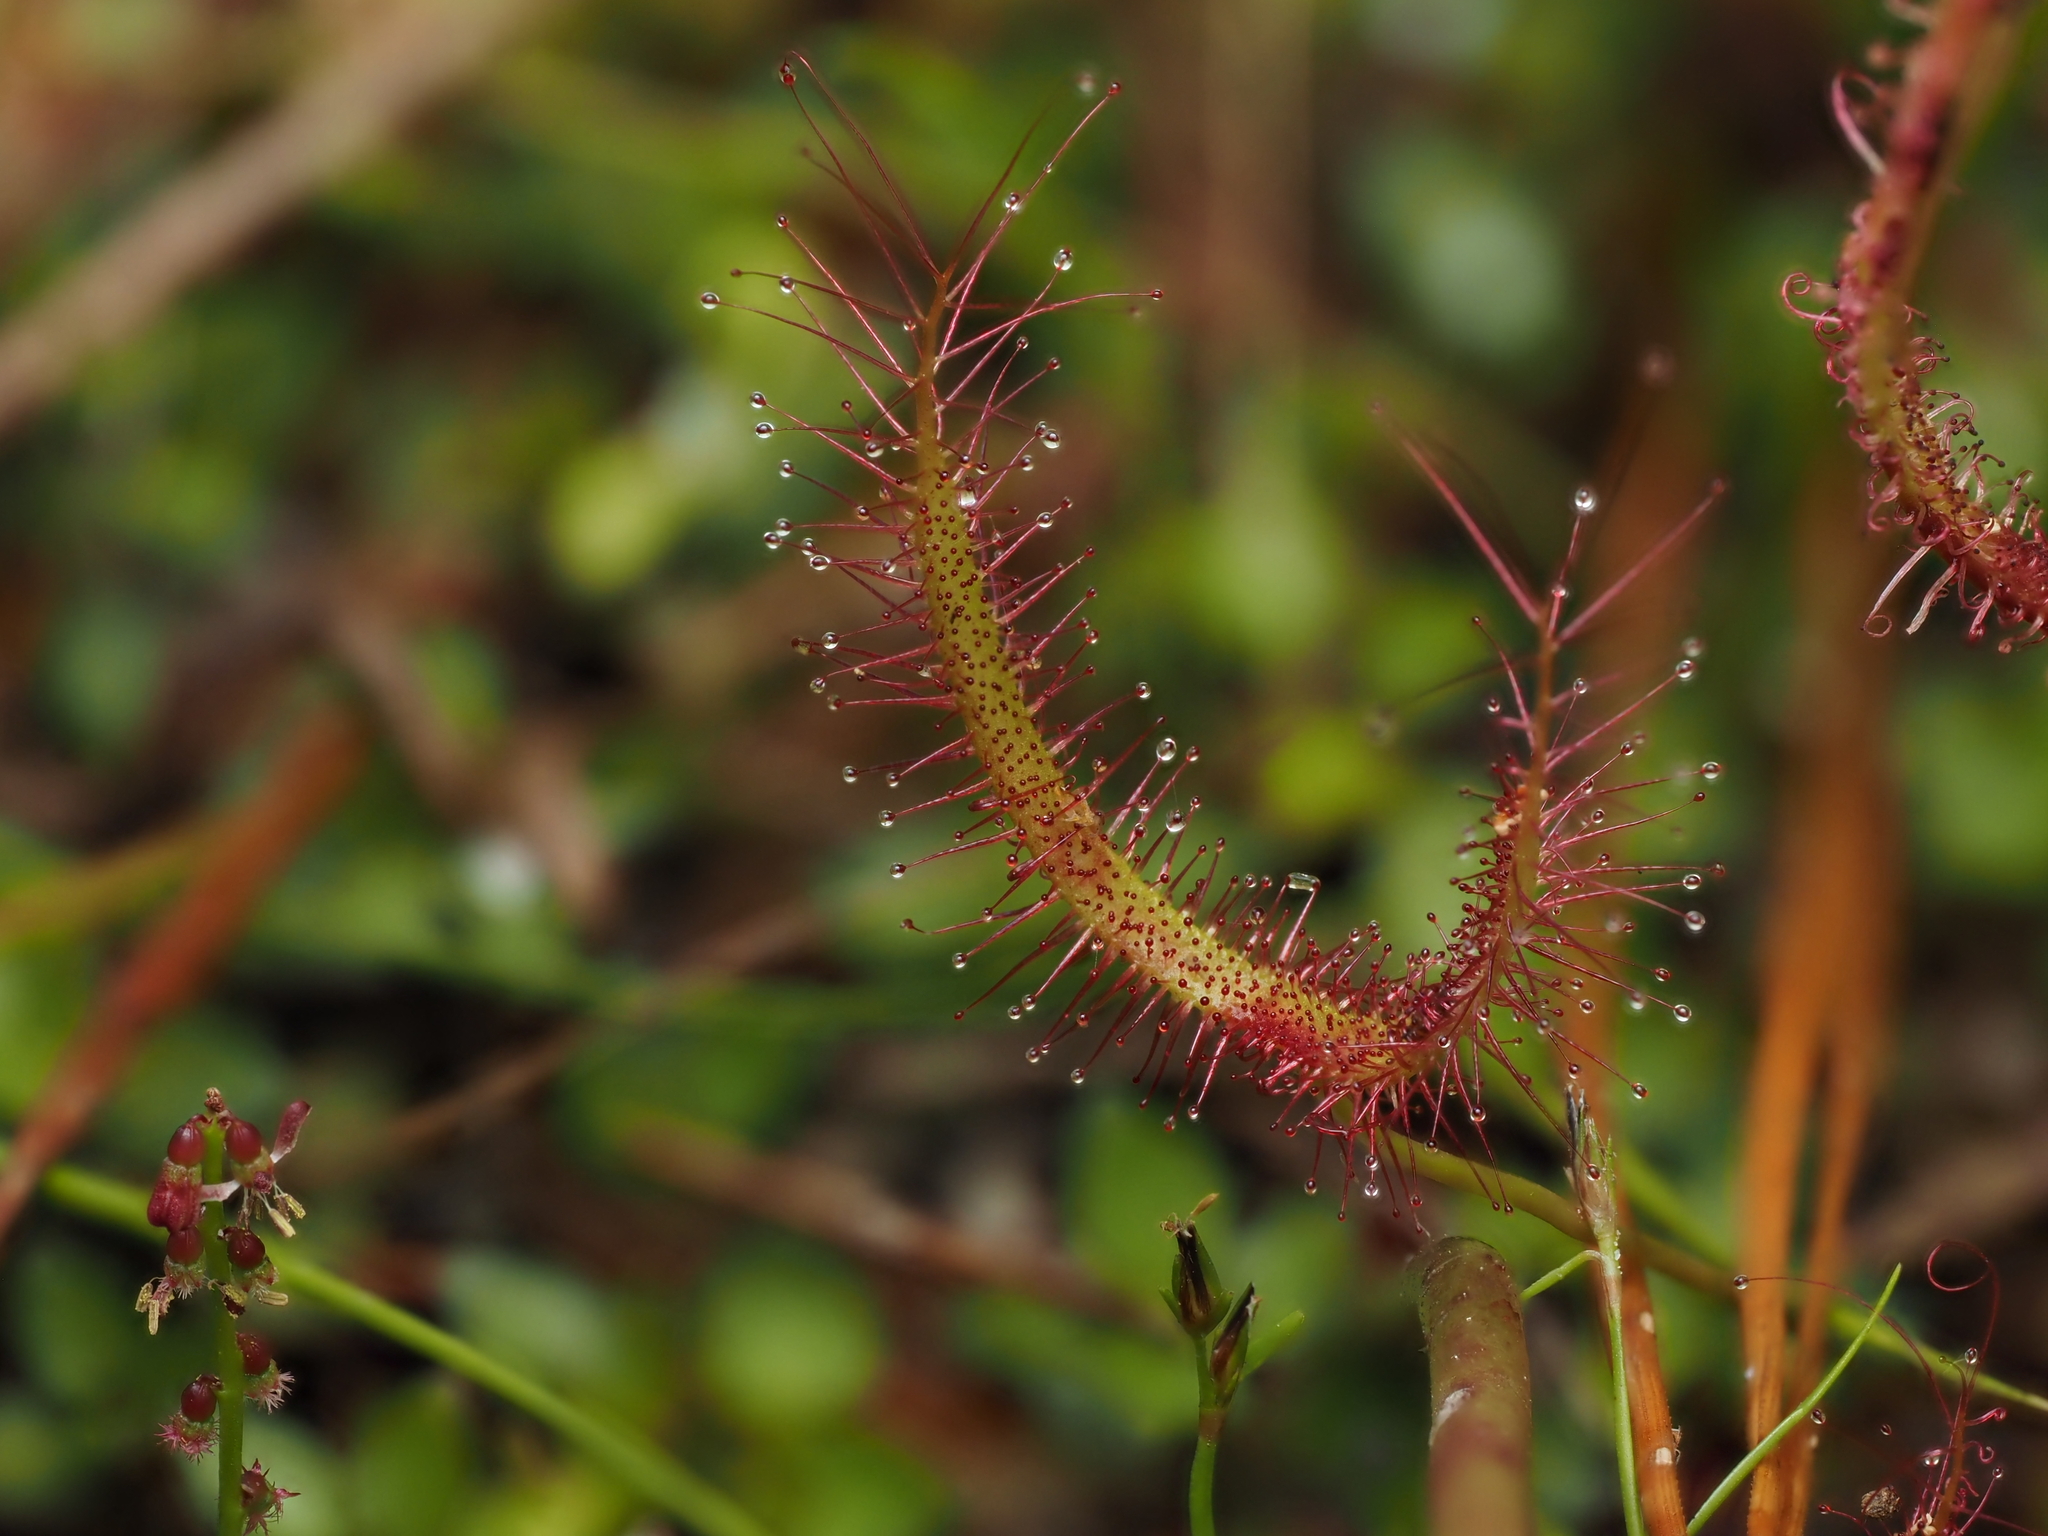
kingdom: Plantae
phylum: Tracheophyta
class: Magnoliopsida
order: Caryophyllales
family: Droseraceae
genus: Drosera
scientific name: Drosera binata
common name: Forked sundew
